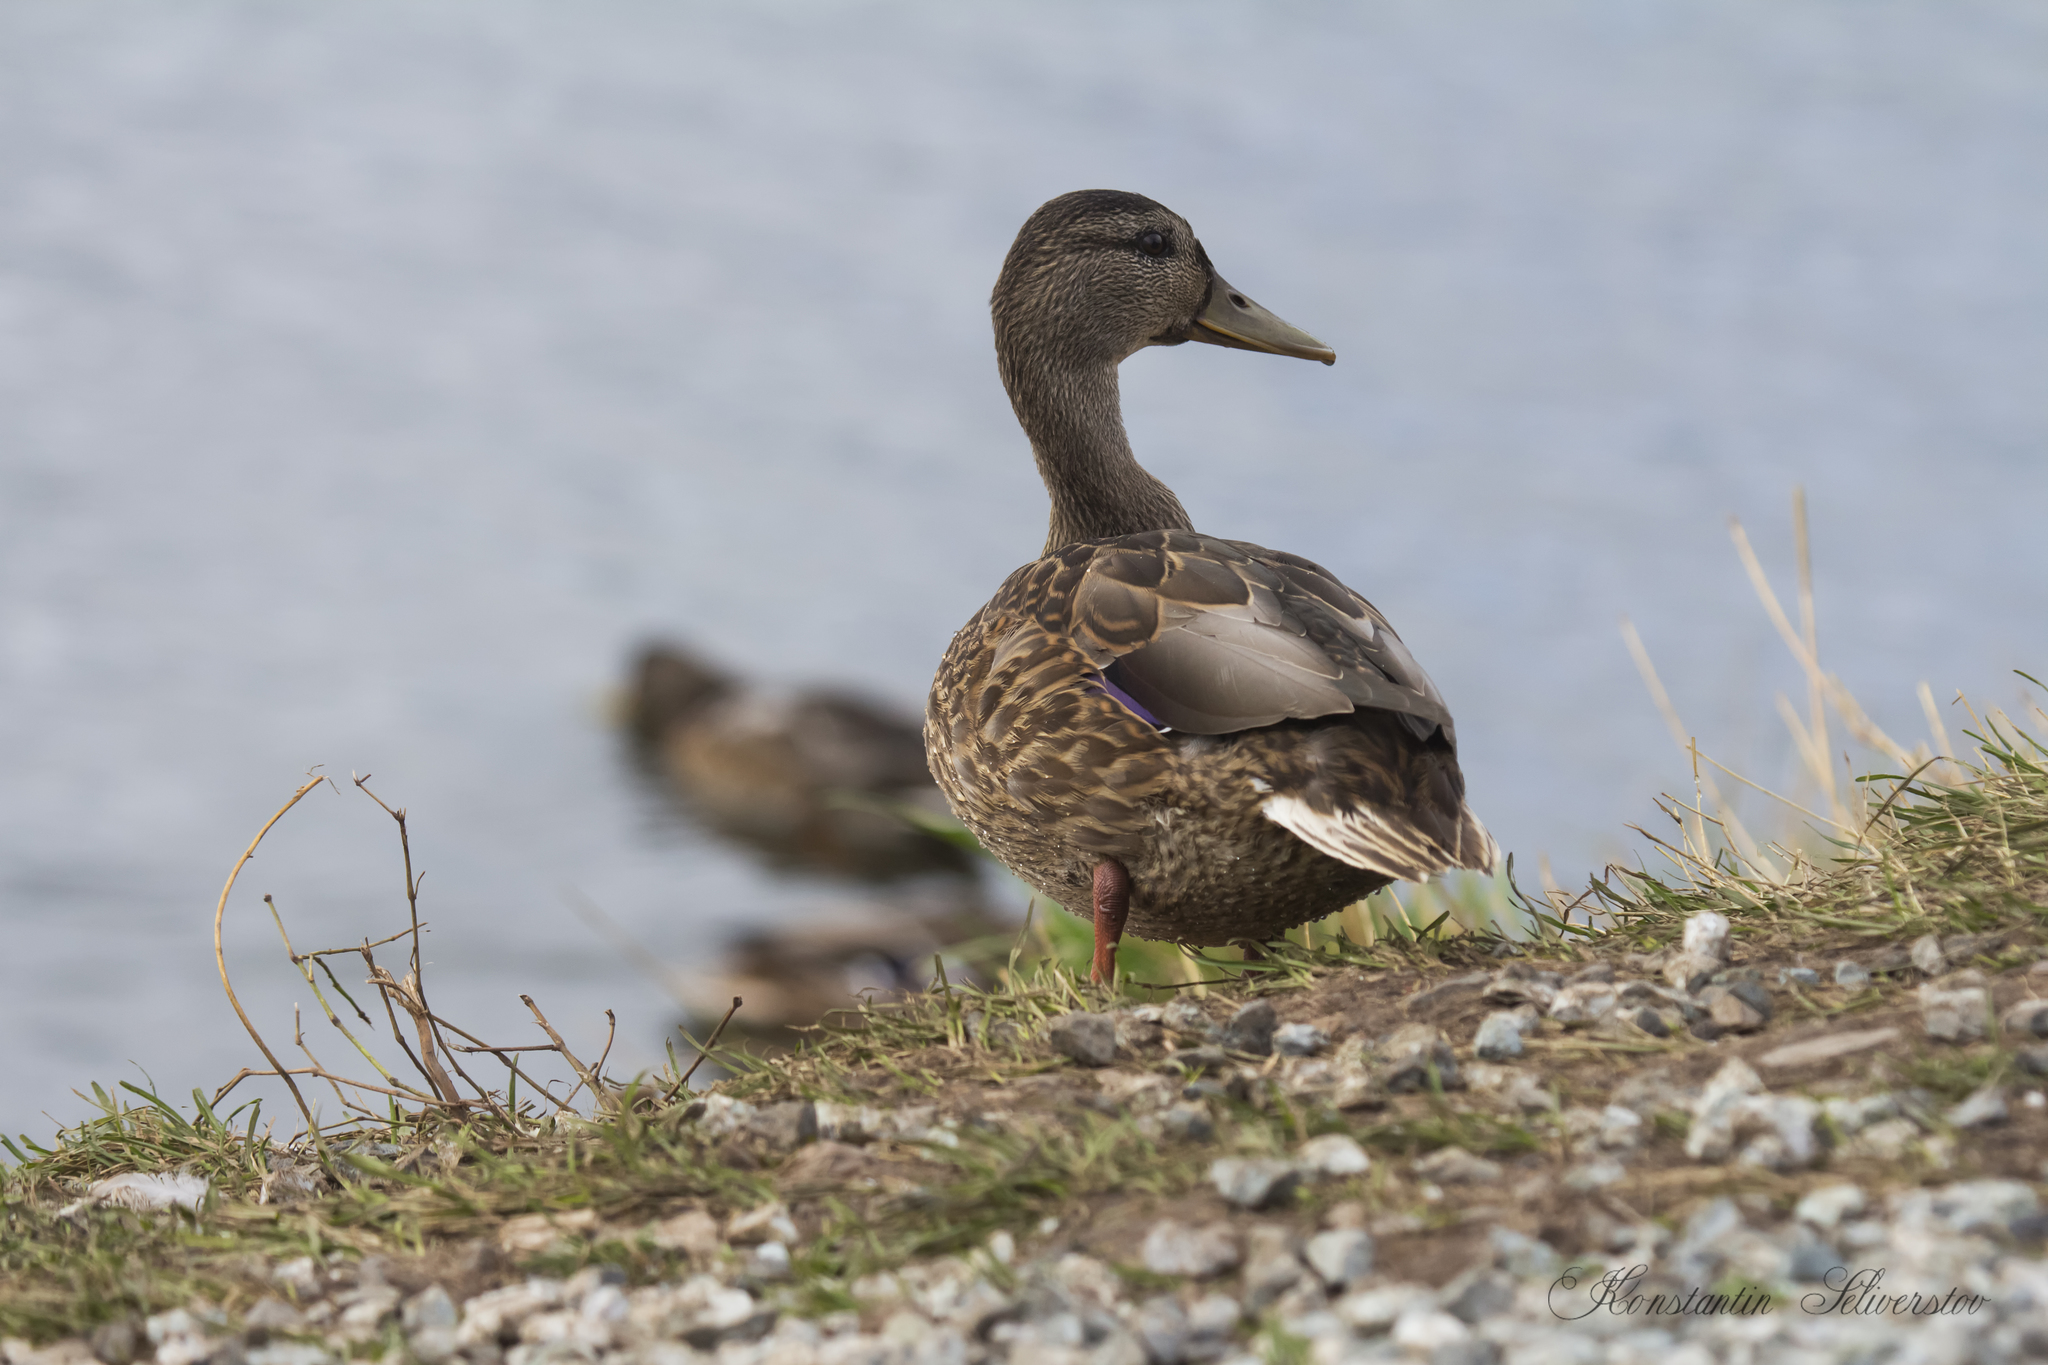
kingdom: Animalia
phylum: Chordata
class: Aves
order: Anseriformes
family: Anatidae
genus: Anas
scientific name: Anas platyrhynchos
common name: Mallard
